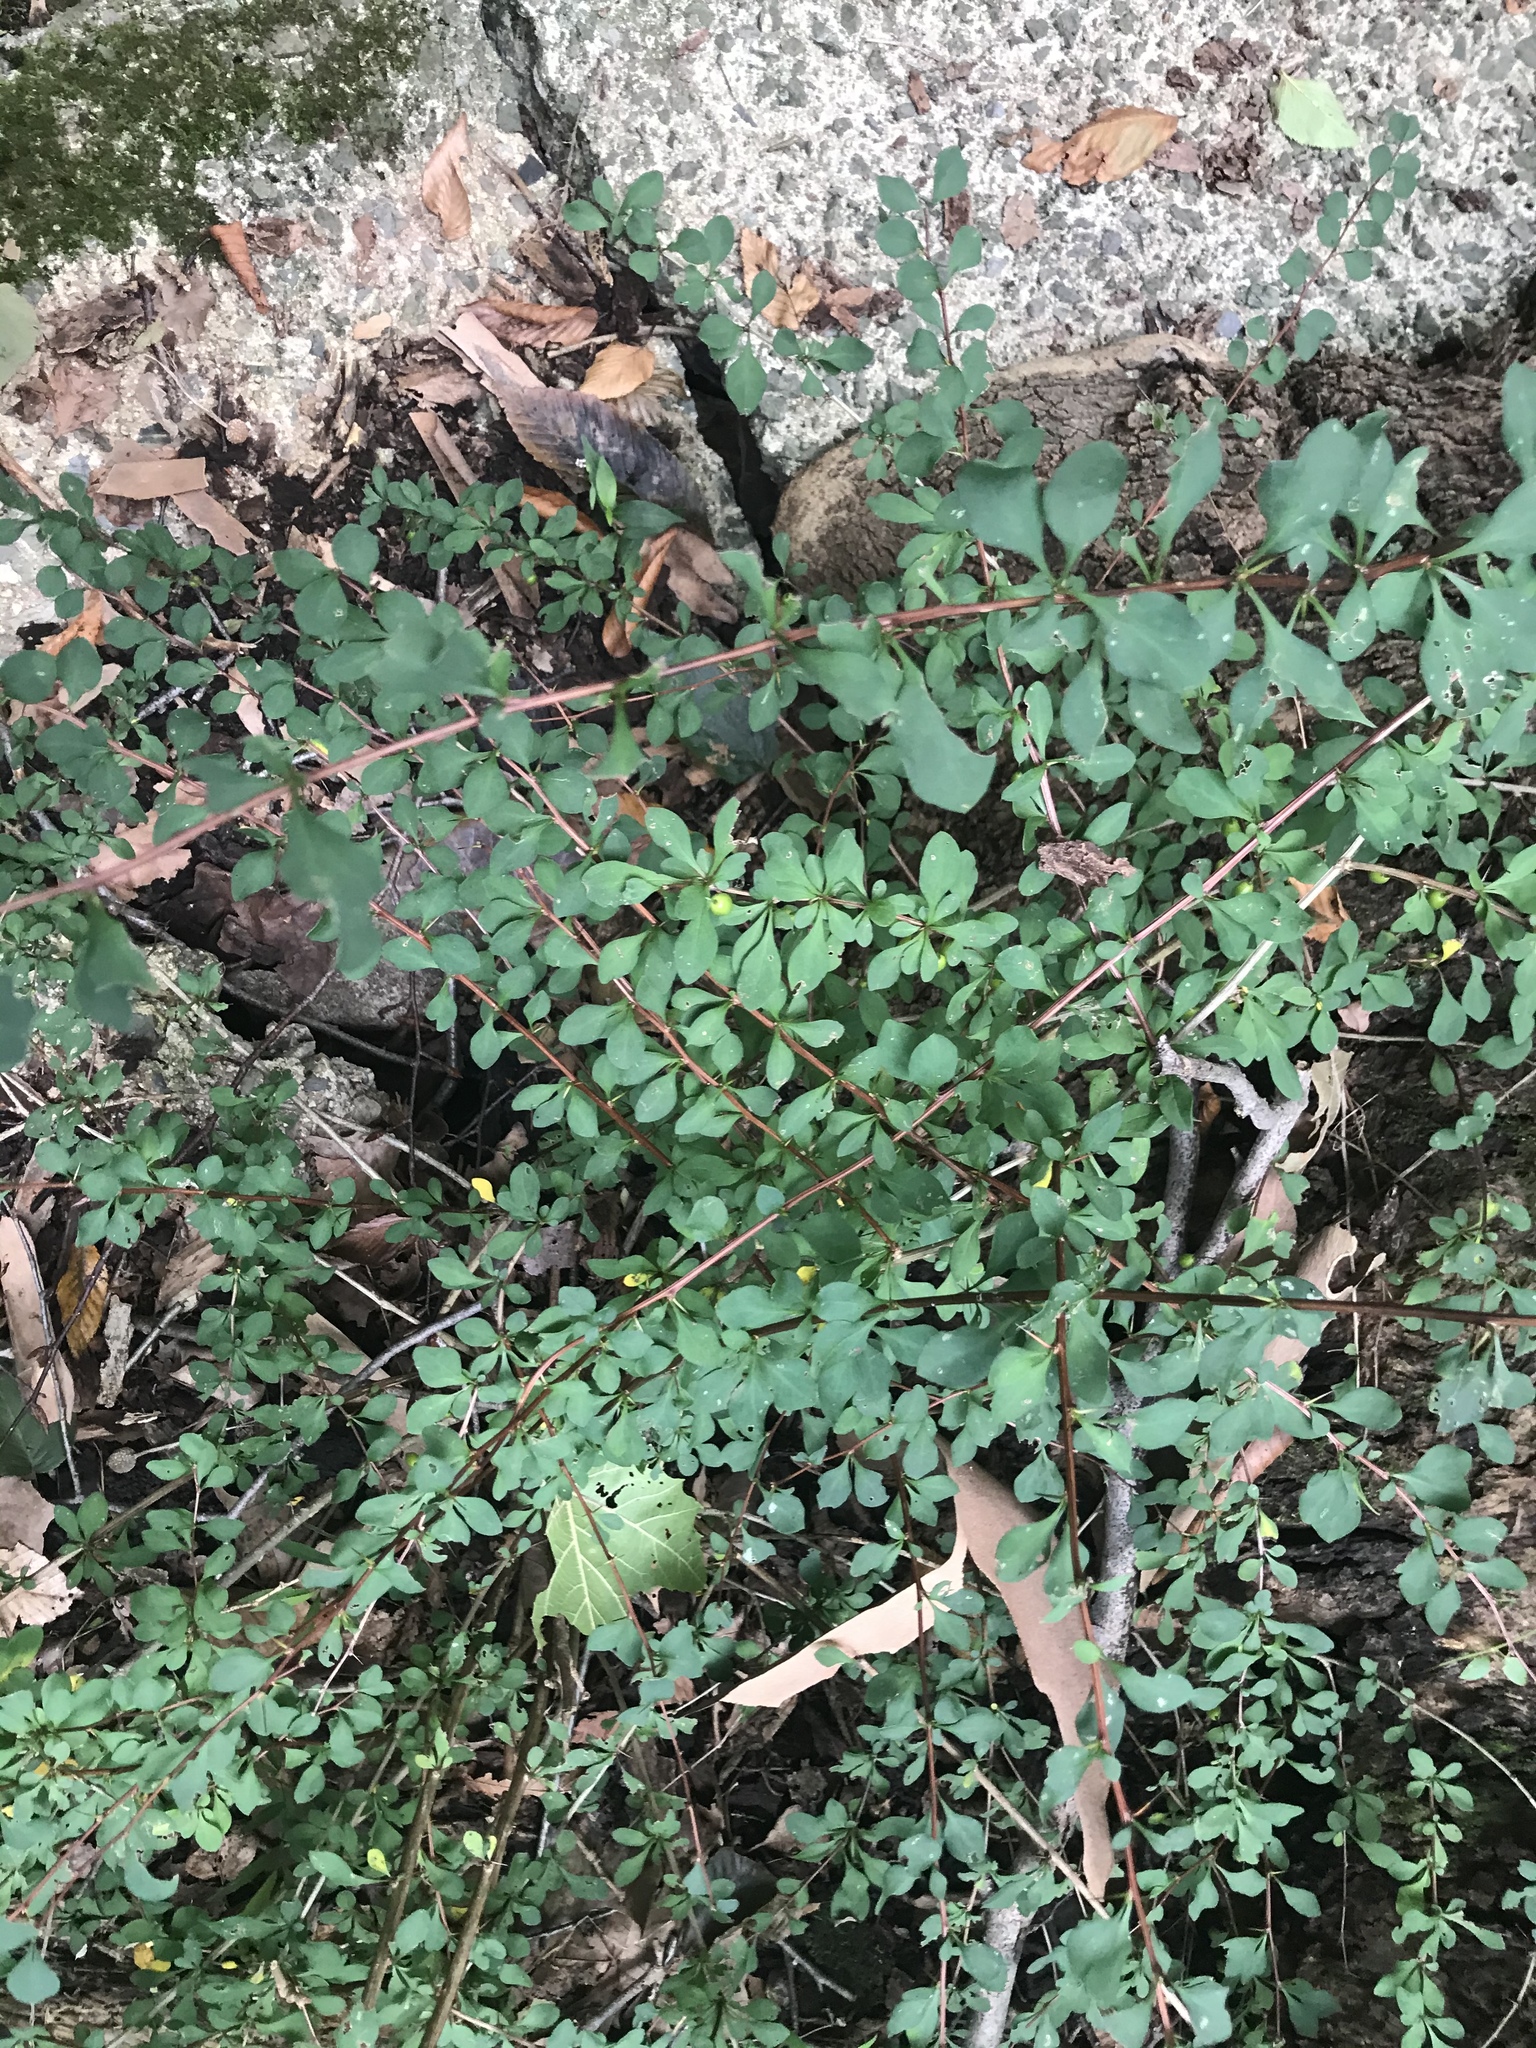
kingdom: Plantae
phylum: Tracheophyta
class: Magnoliopsida
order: Ranunculales
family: Berberidaceae
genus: Berberis
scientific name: Berberis thunbergii
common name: Japanese barberry
